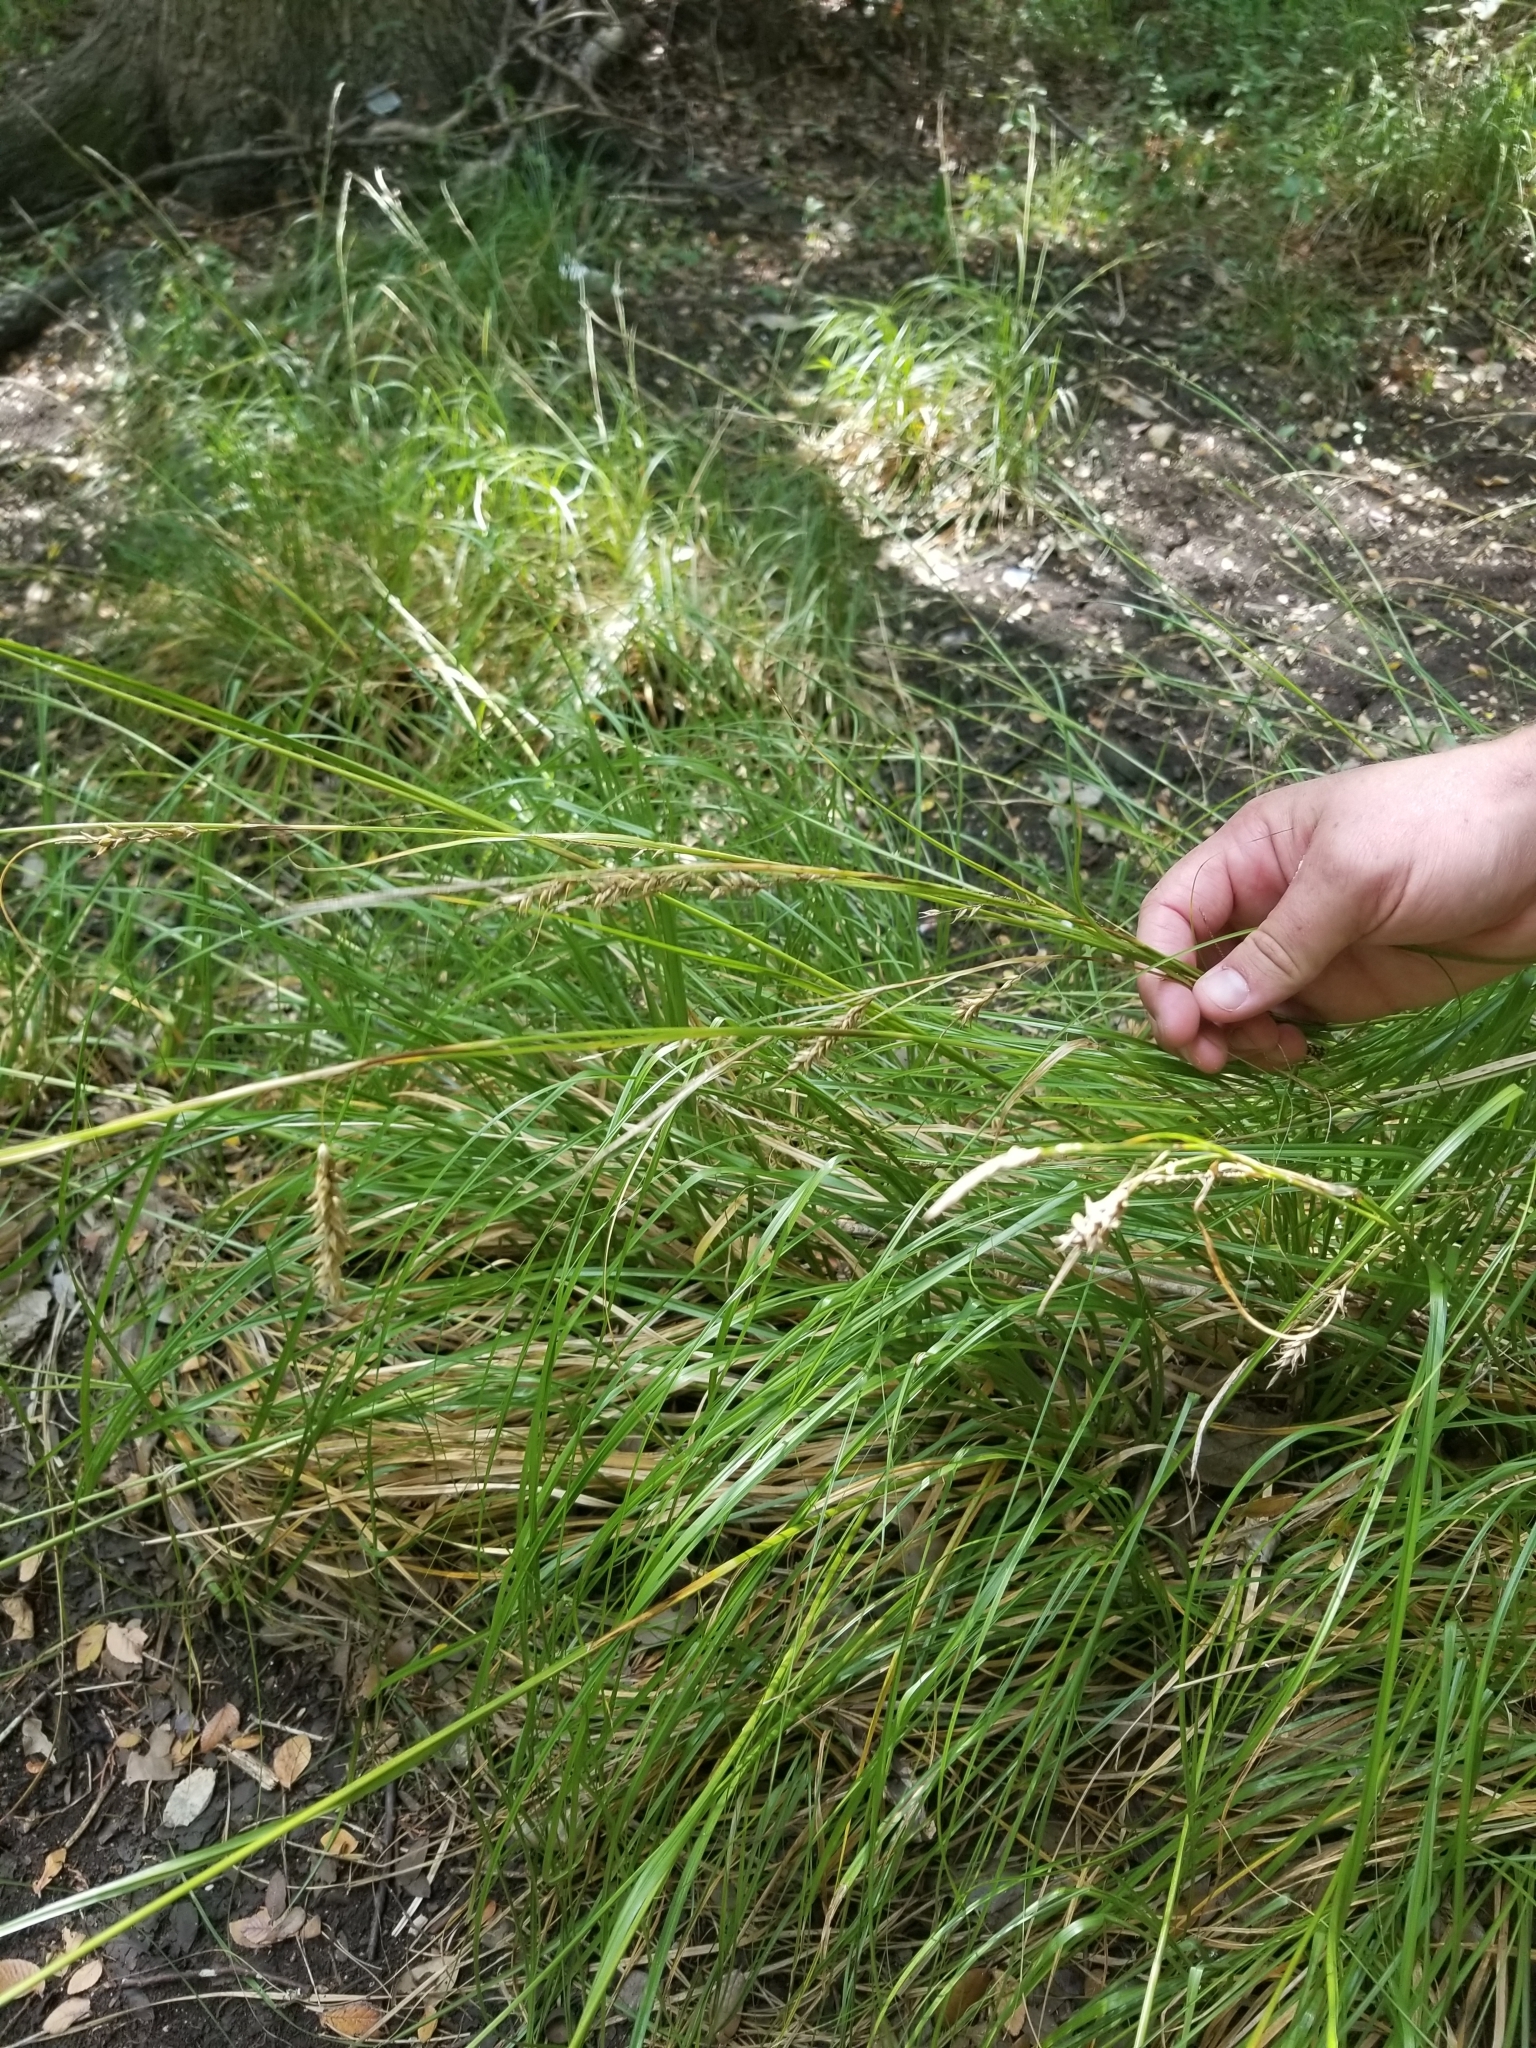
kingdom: Plantae
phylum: Tracheophyta
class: Liliopsida
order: Poales
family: Cyperaceae
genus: Carex
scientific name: Carex cherokeensis
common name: Cherokee sedge
